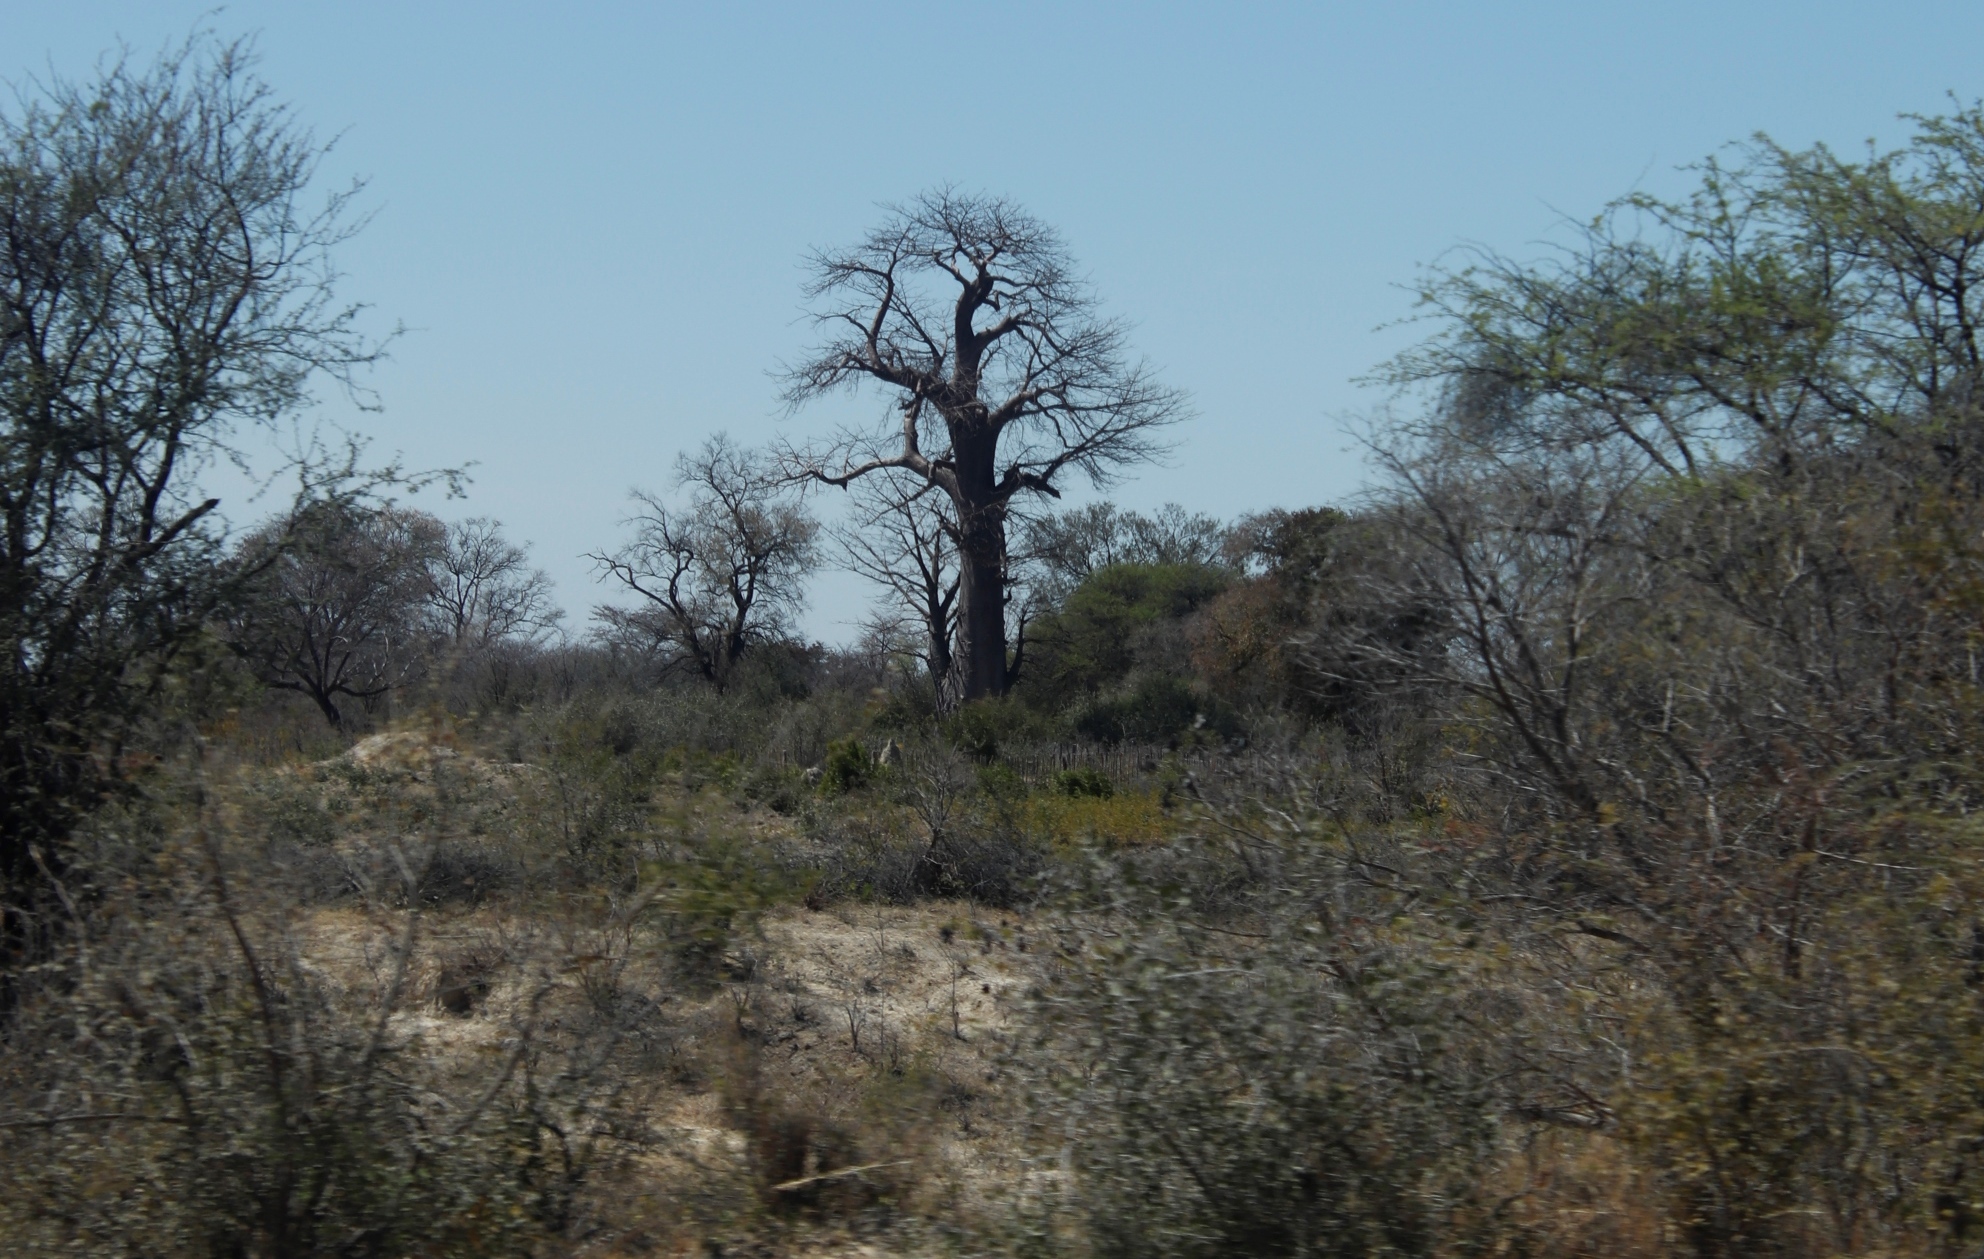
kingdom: Plantae
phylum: Tracheophyta
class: Magnoliopsida
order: Malvales
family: Malvaceae
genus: Adansonia
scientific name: Adansonia digitata
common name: Dead-rat-tree
